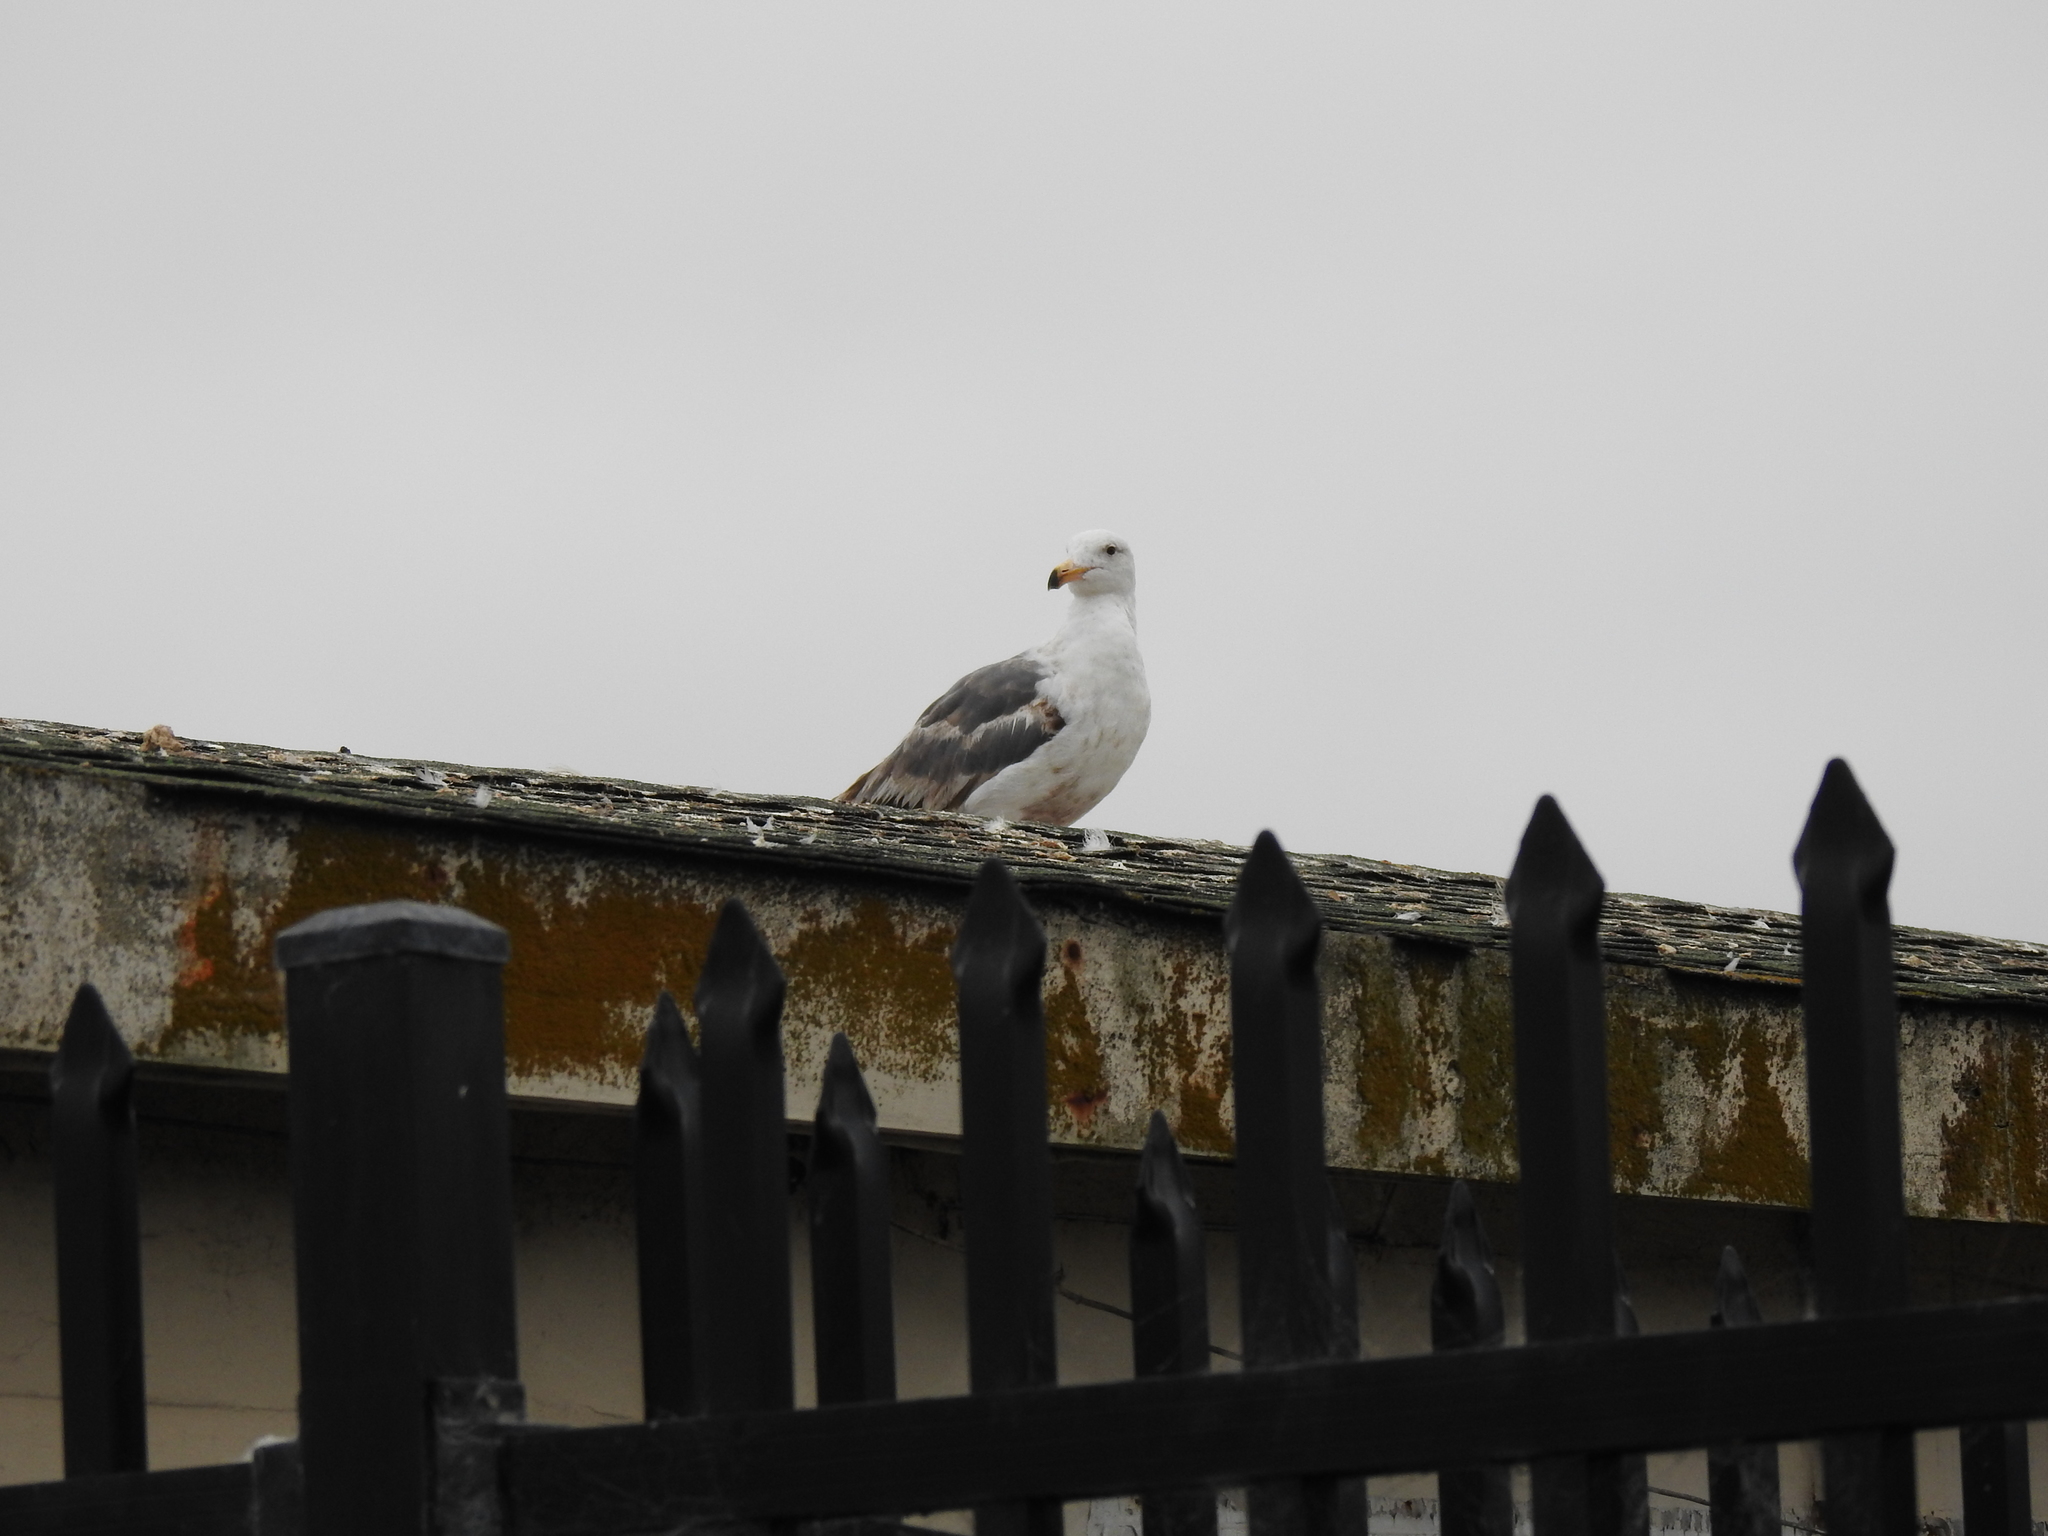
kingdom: Animalia
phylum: Chordata
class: Aves
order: Charadriiformes
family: Laridae
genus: Larus
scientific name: Larus occidentalis
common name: Western gull
